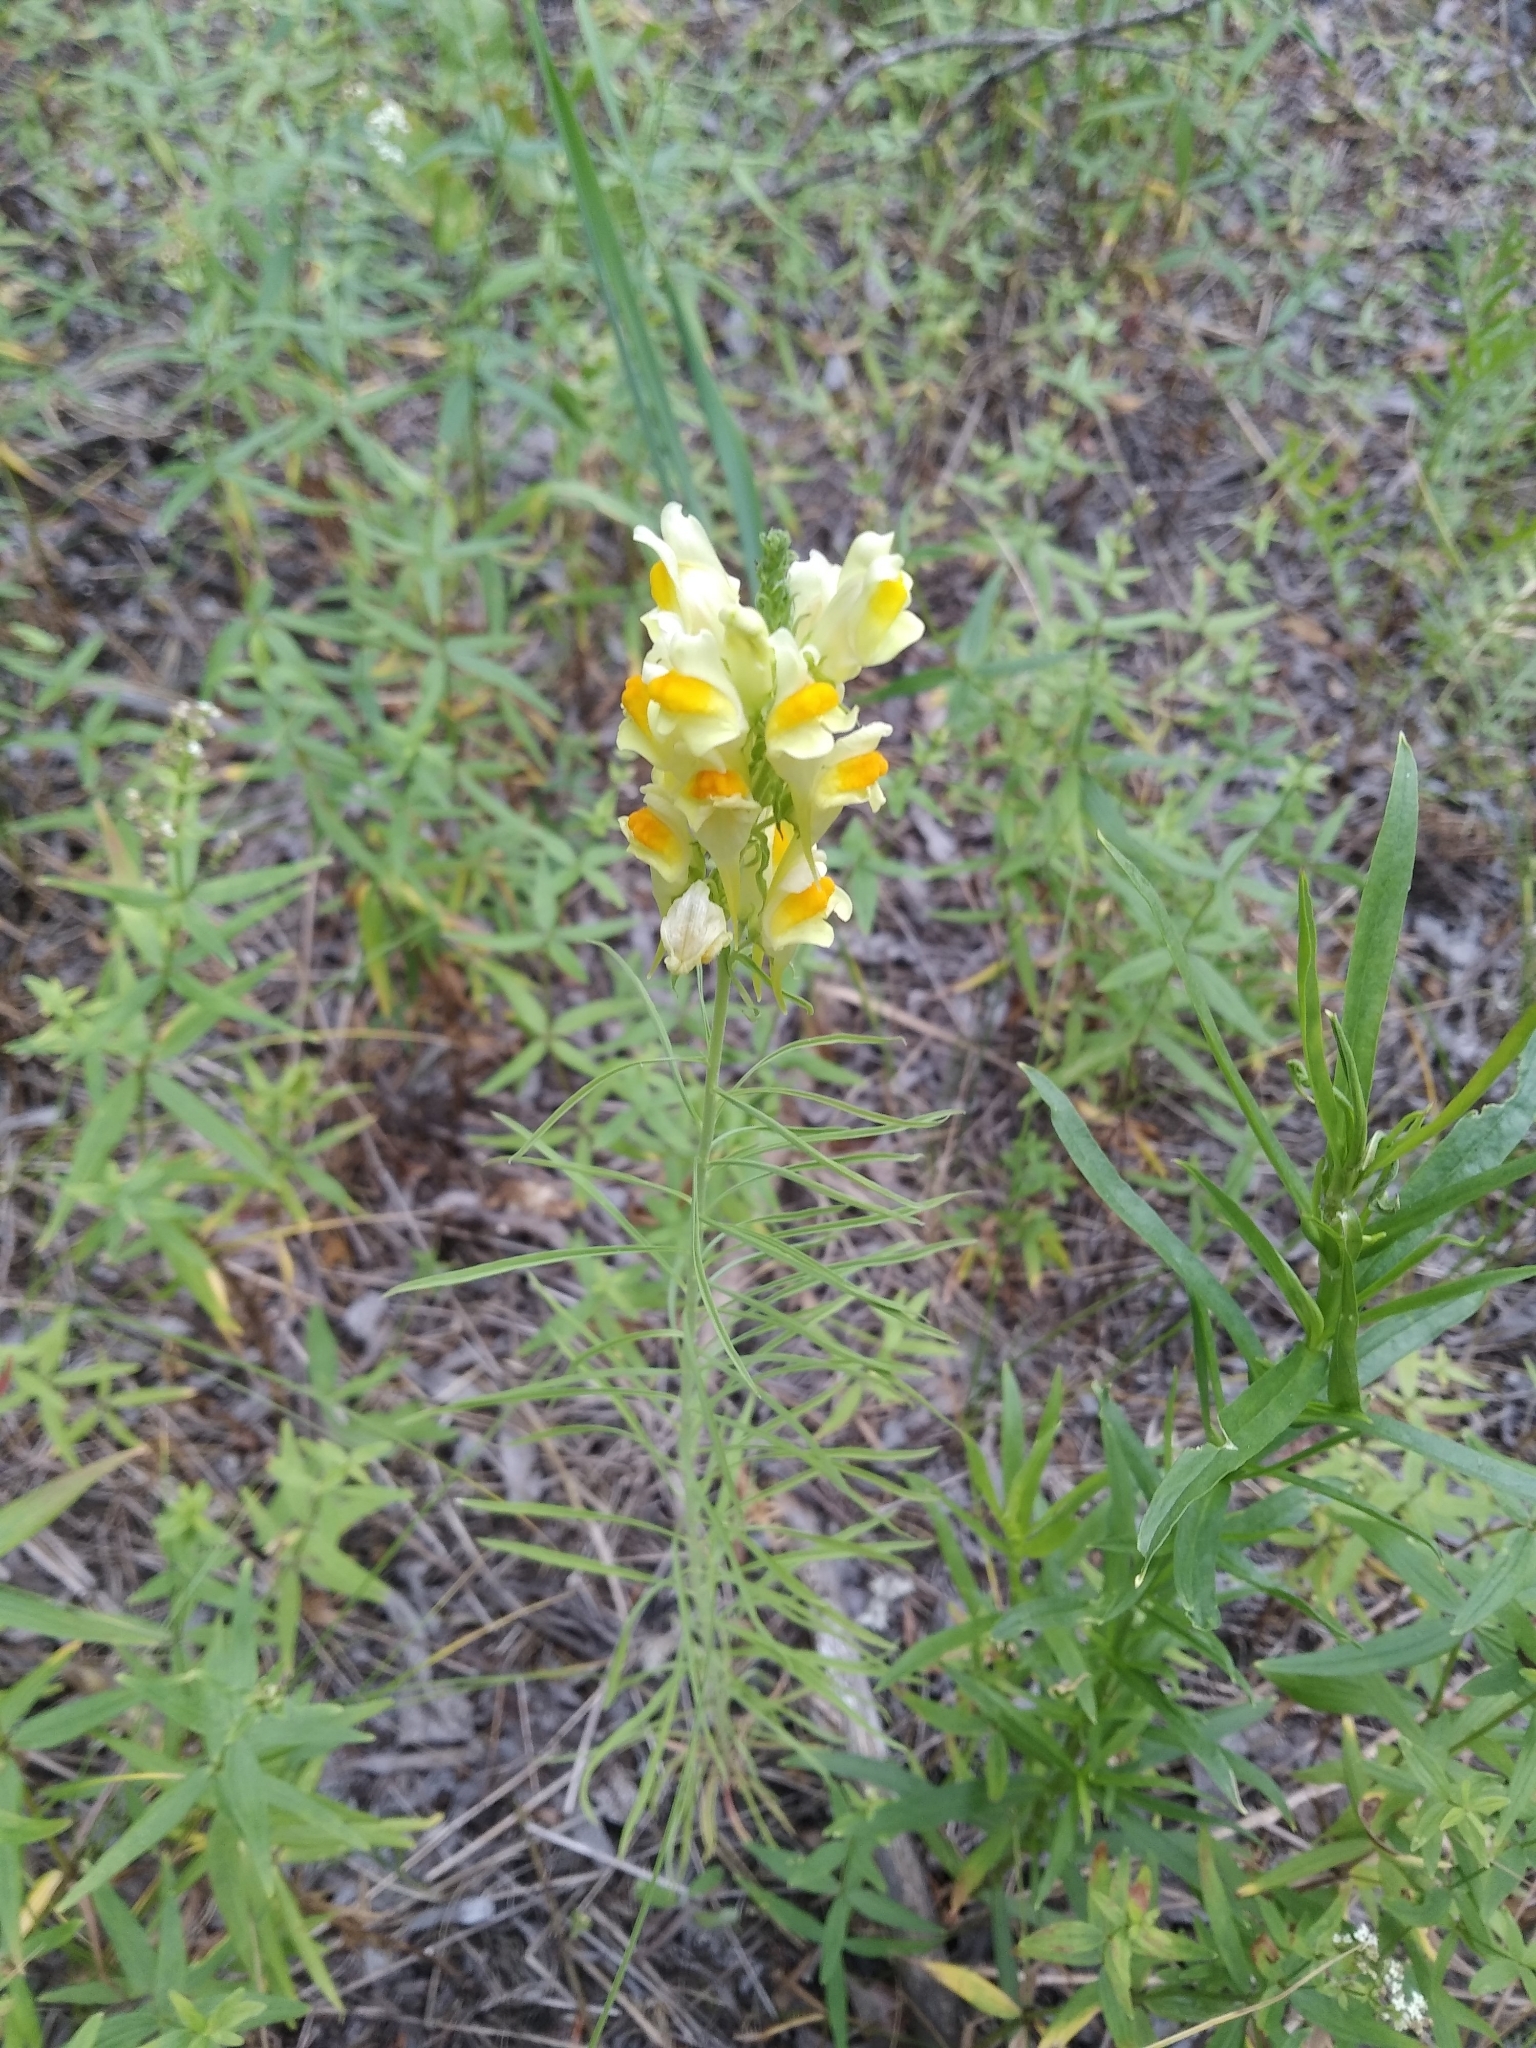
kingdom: Plantae
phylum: Tracheophyta
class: Magnoliopsida
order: Lamiales
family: Plantaginaceae
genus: Linaria
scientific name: Linaria vulgaris
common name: Butter and eggs
